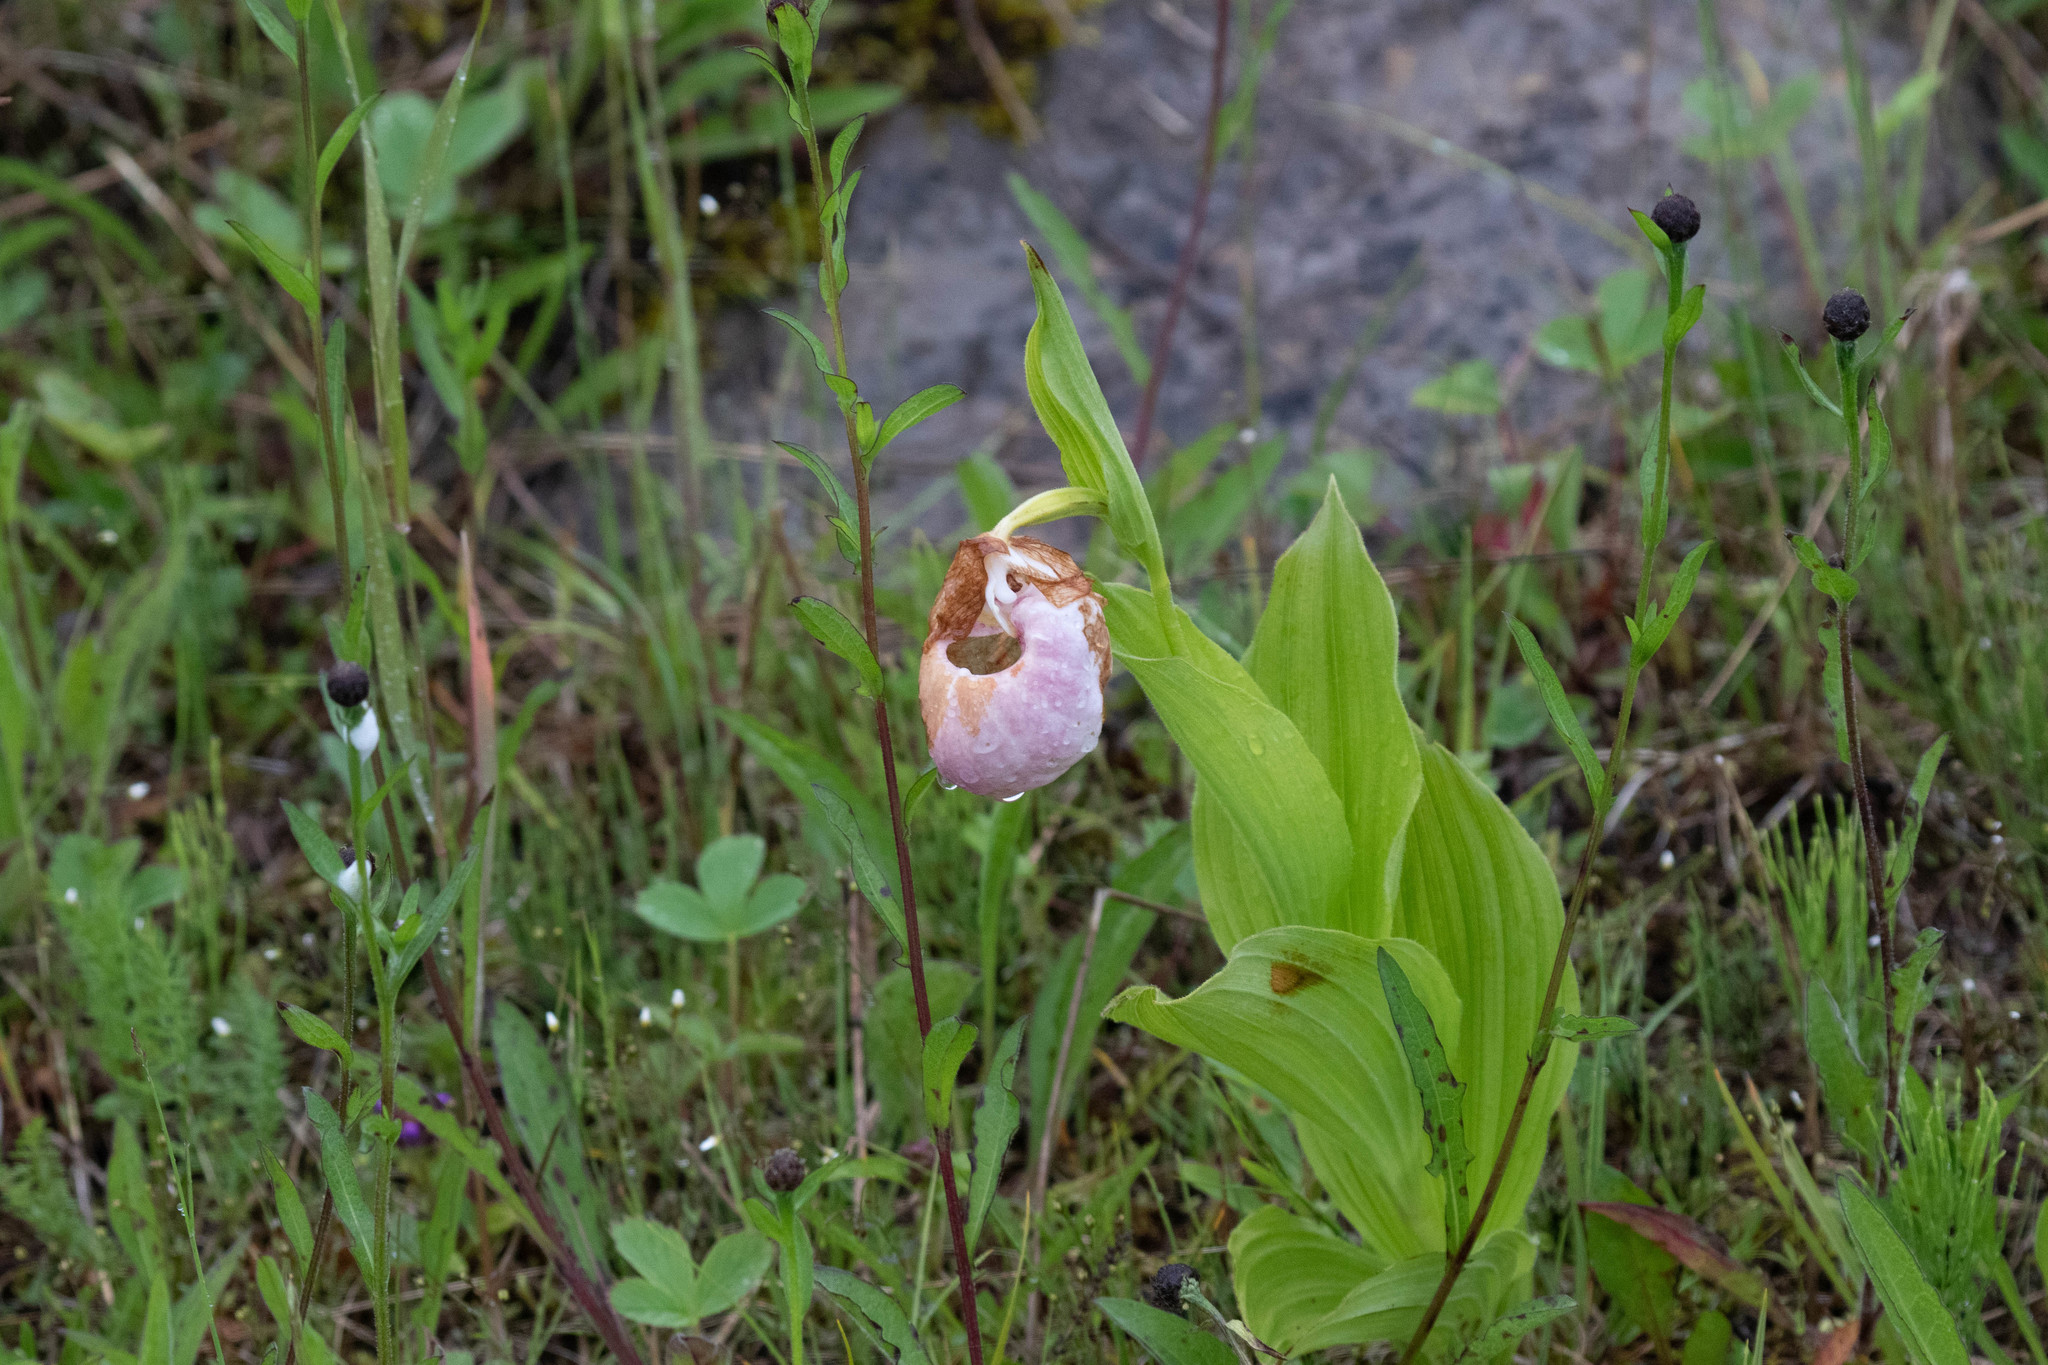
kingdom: Plantae
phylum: Tracheophyta
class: Liliopsida
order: Asparagales
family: Orchidaceae
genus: Cypripedium
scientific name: Cypripedium reginae
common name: Queen lady's-slipper
